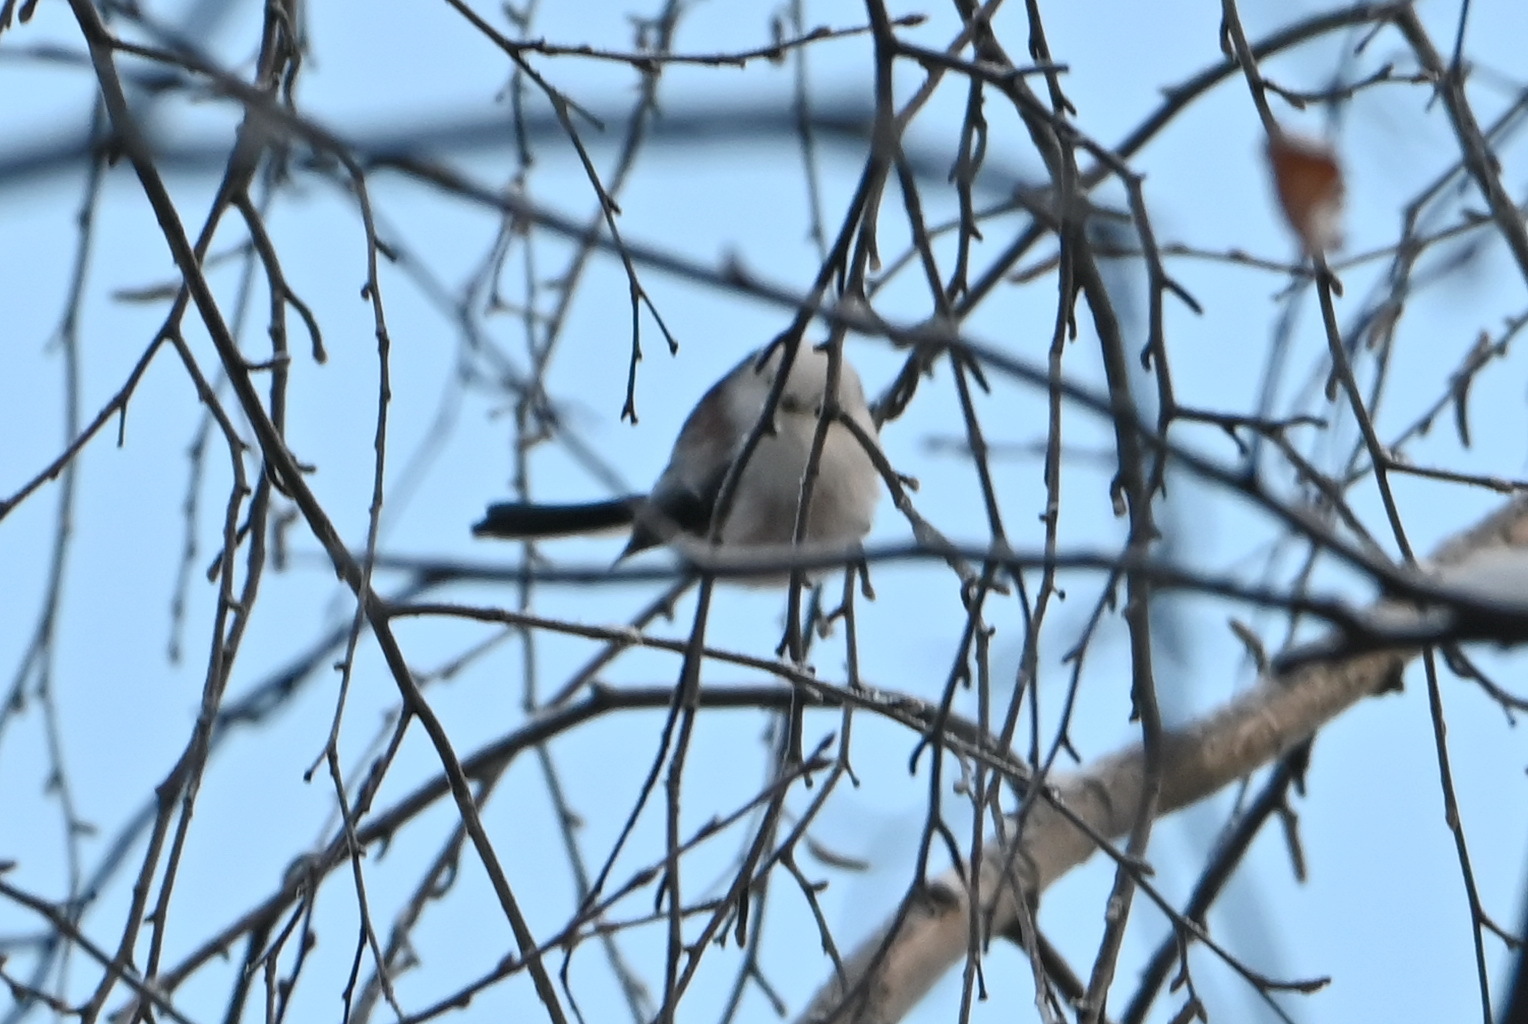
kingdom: Animalia
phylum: Chordata
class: Aves
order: Passeriformes
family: Aegithalidae
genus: Aegithalos
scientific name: Aegithalos caudatus
